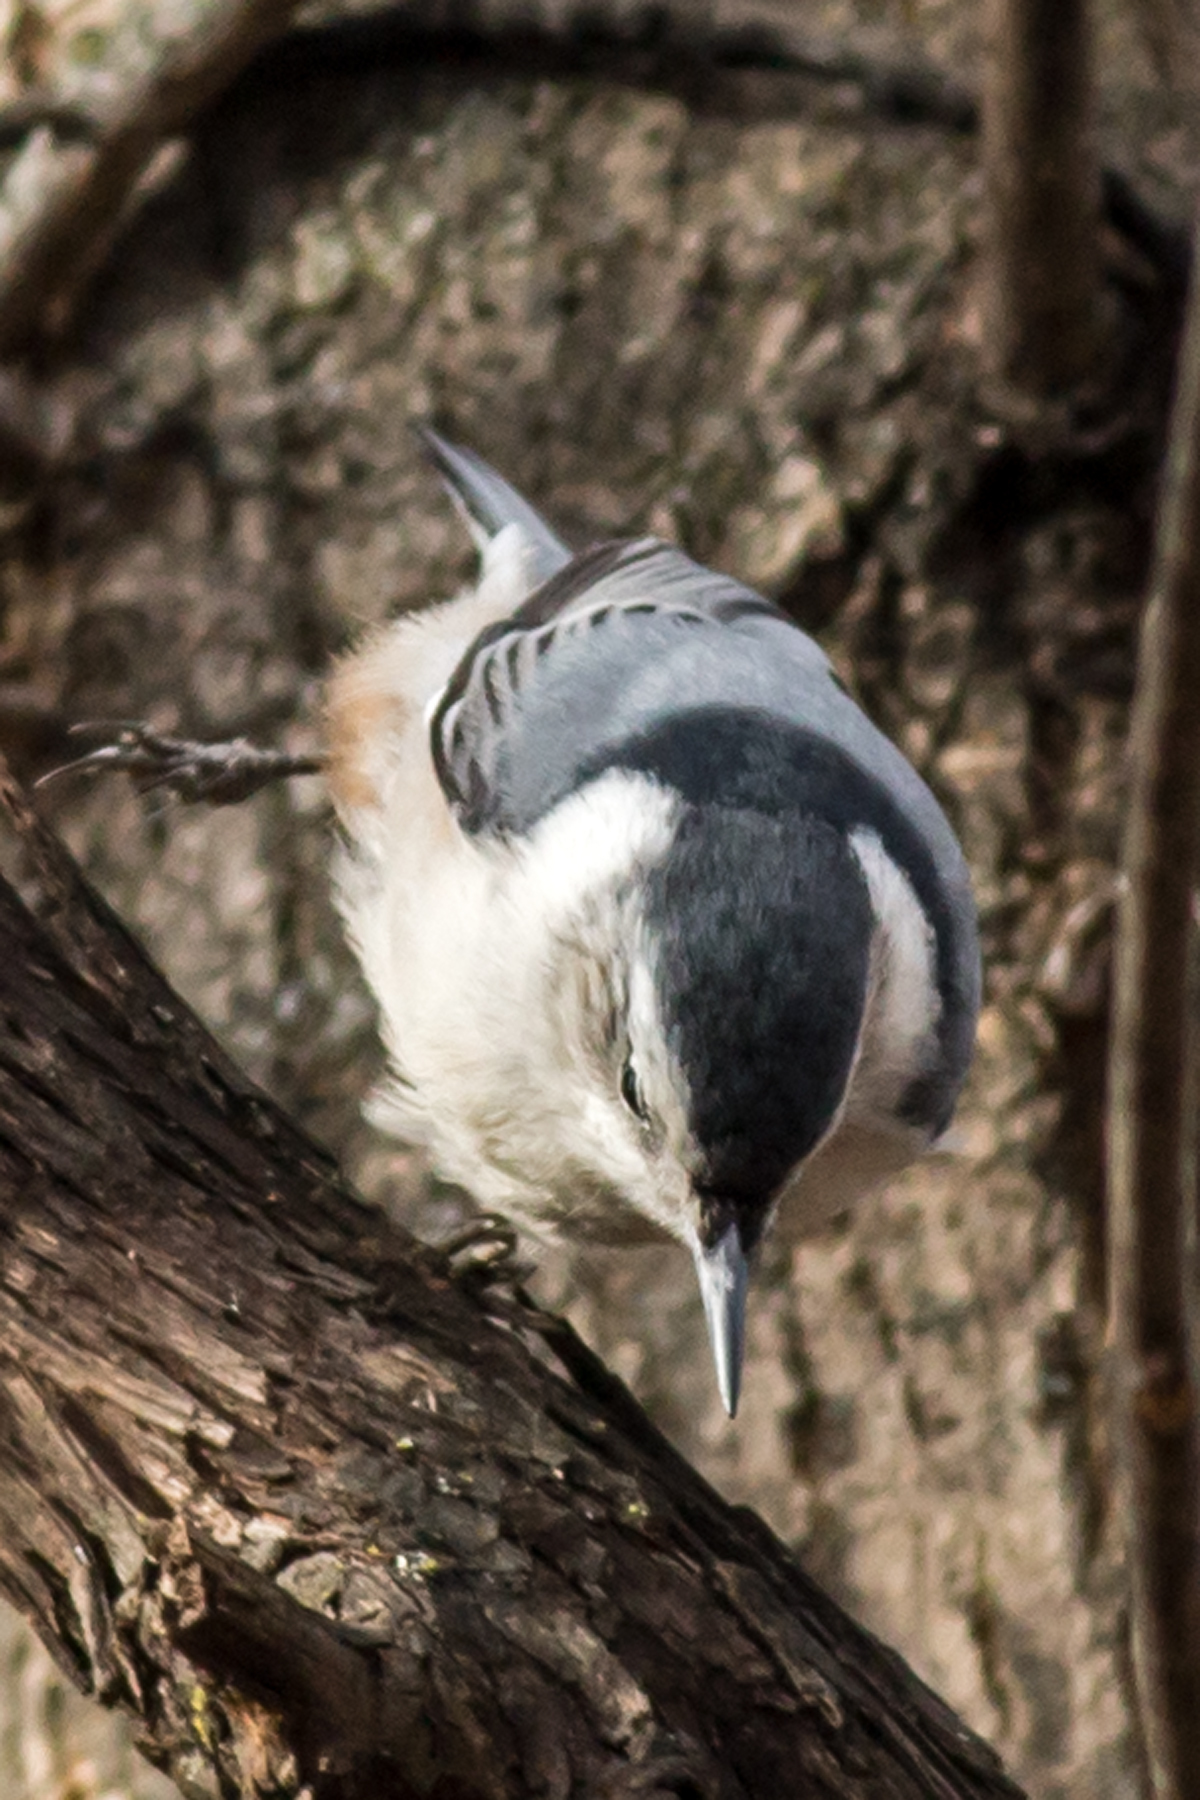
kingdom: Animalia
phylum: Chordata
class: Aves
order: Passeriformes
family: Sittidae
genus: Sitta
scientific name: Sitta carolinensis
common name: White-breasted nuthatch
